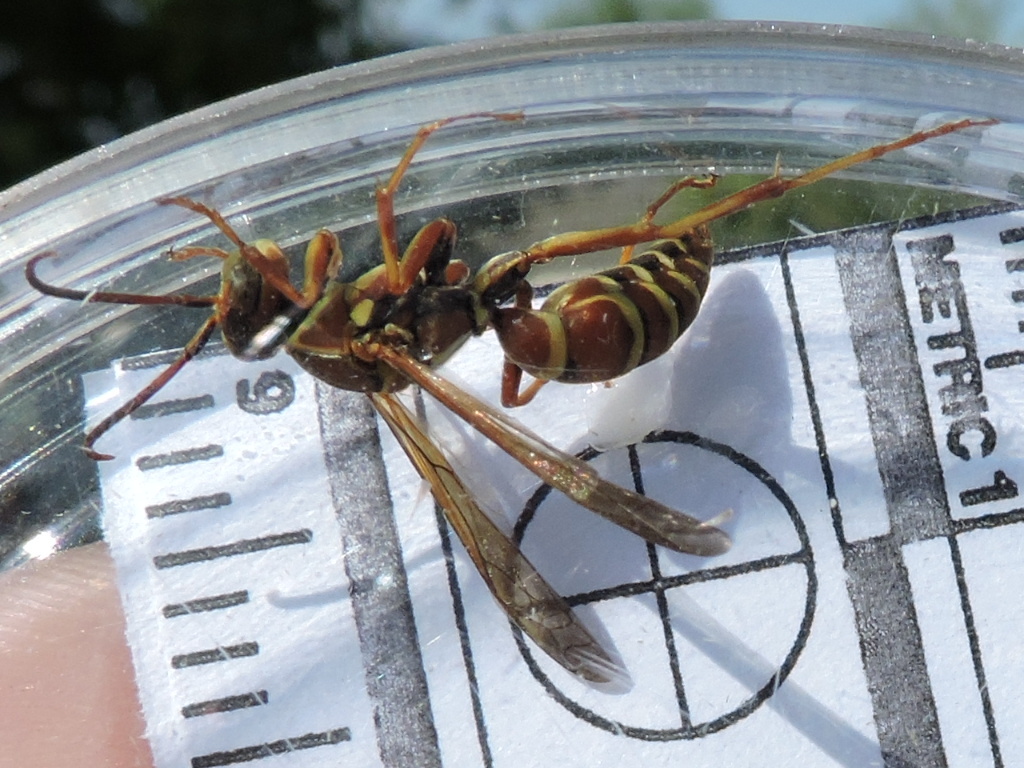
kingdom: Animalia
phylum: Arthropoda
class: Insecta
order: Hymenoptera
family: Eumenidae
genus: Polistes
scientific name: Polistes dorsalis
